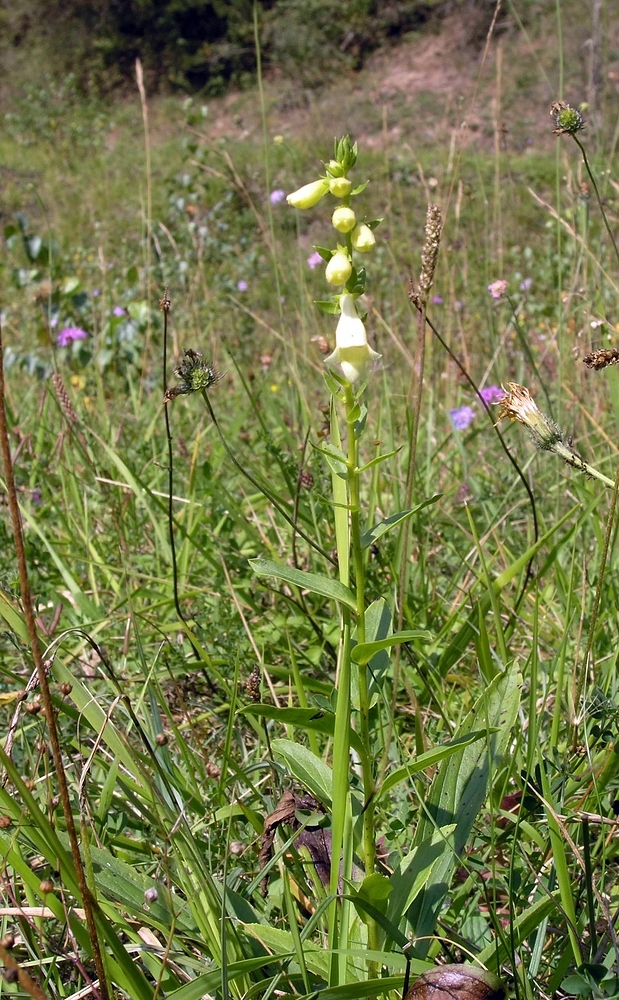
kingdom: Plantae
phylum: Tracheophyta
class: Magnoliopsida
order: Lamiales
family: Plantaginaceae
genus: Digitalis
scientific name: Digitalis lutea
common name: Straw foxglove
